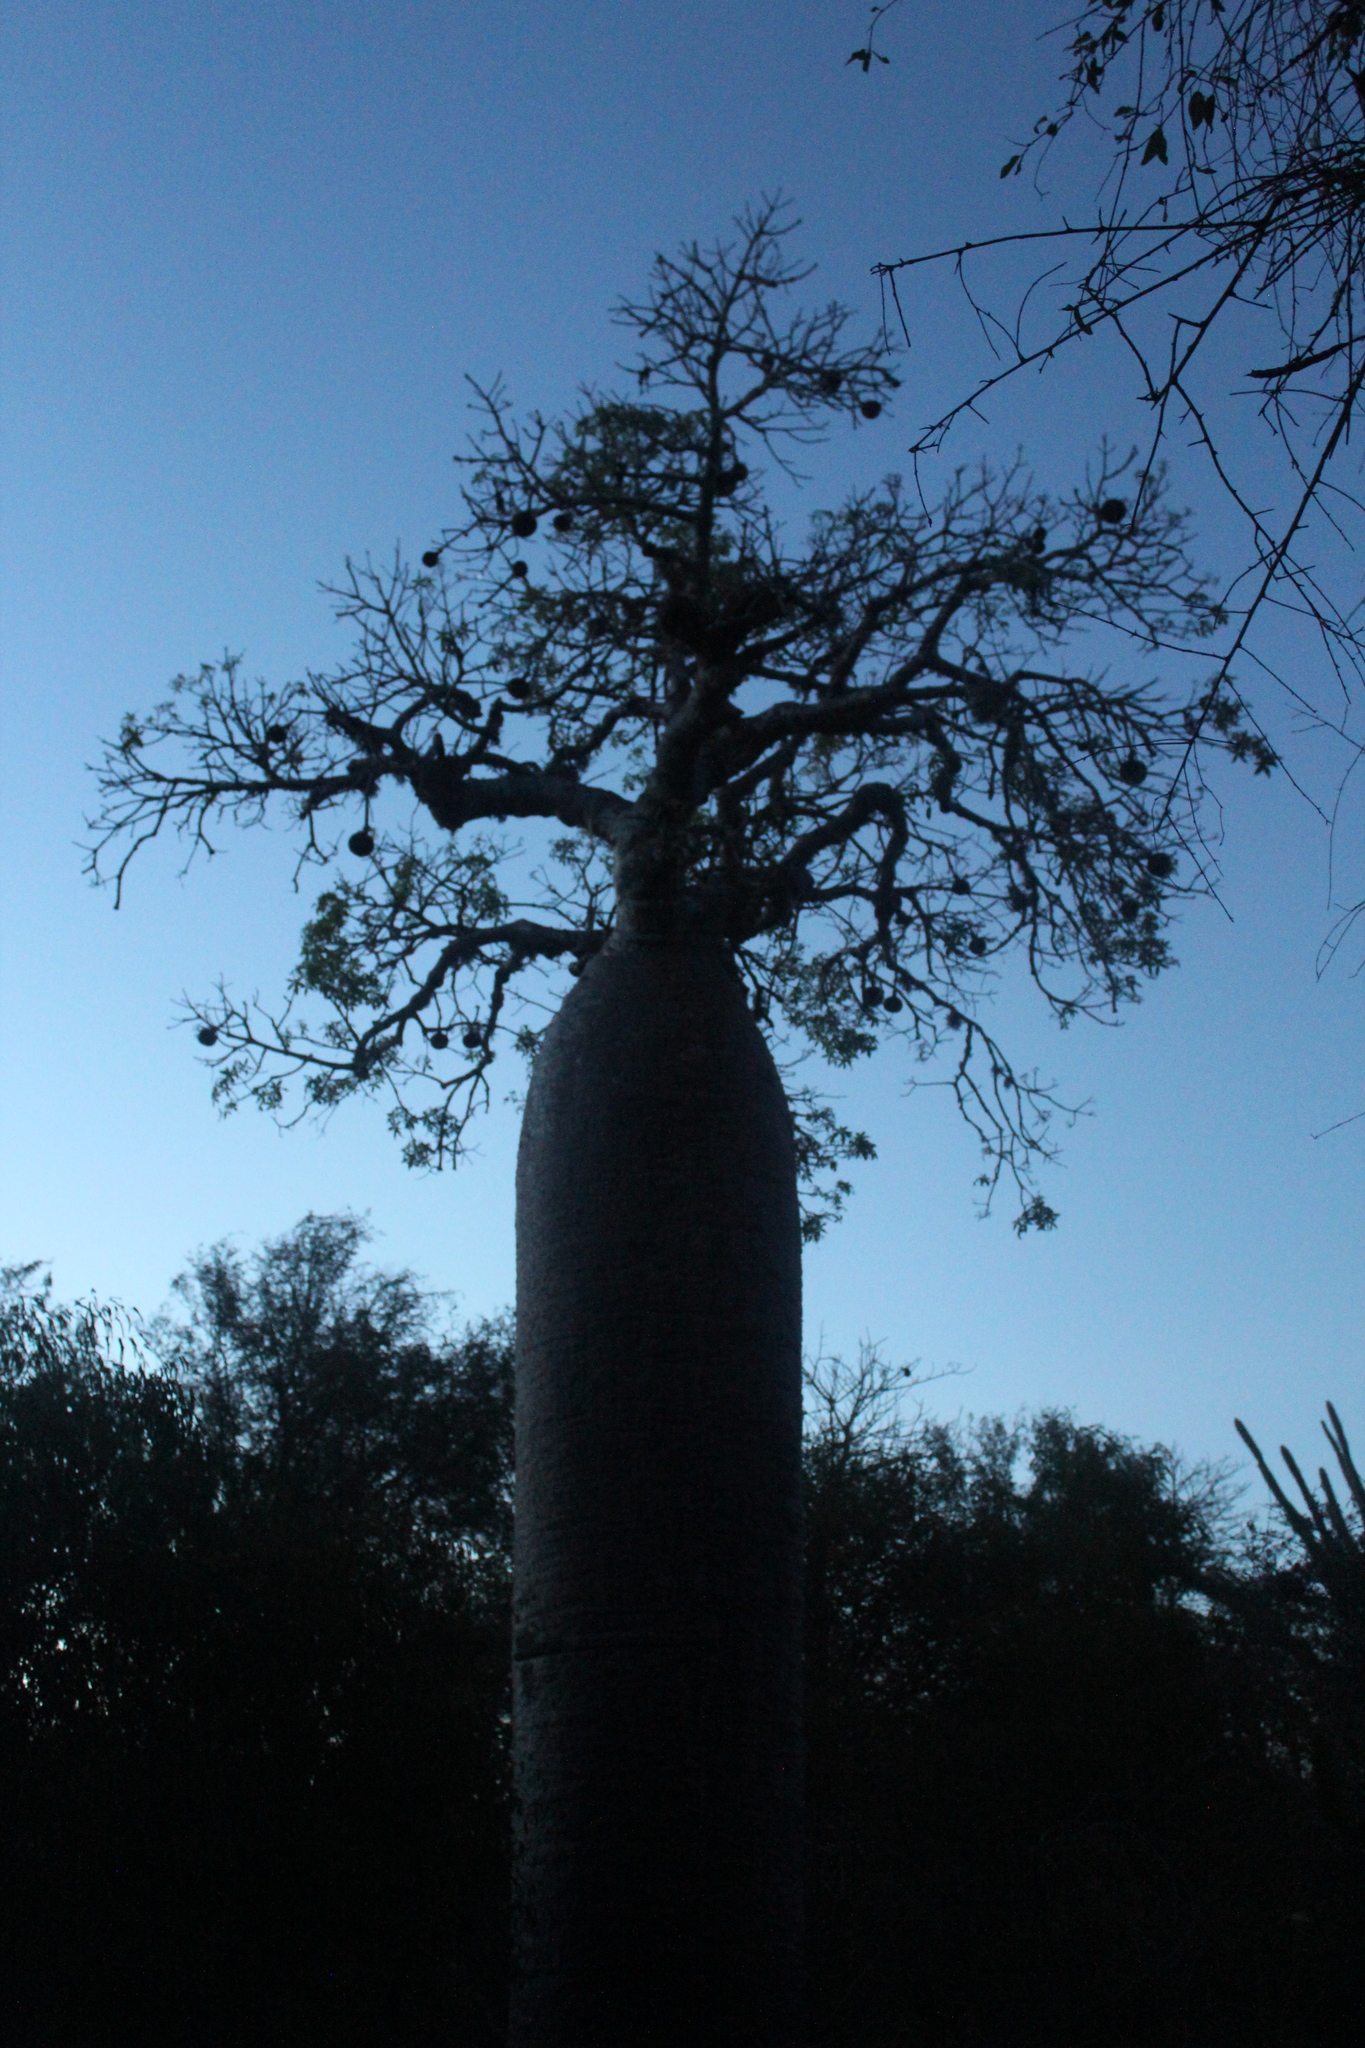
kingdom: Plantae
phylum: Tracheophyta
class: Magnoliopsida
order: Malvales
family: Malvaceae
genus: Adansonia
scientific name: Adansonia rubrostipa
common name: Fony baobab
